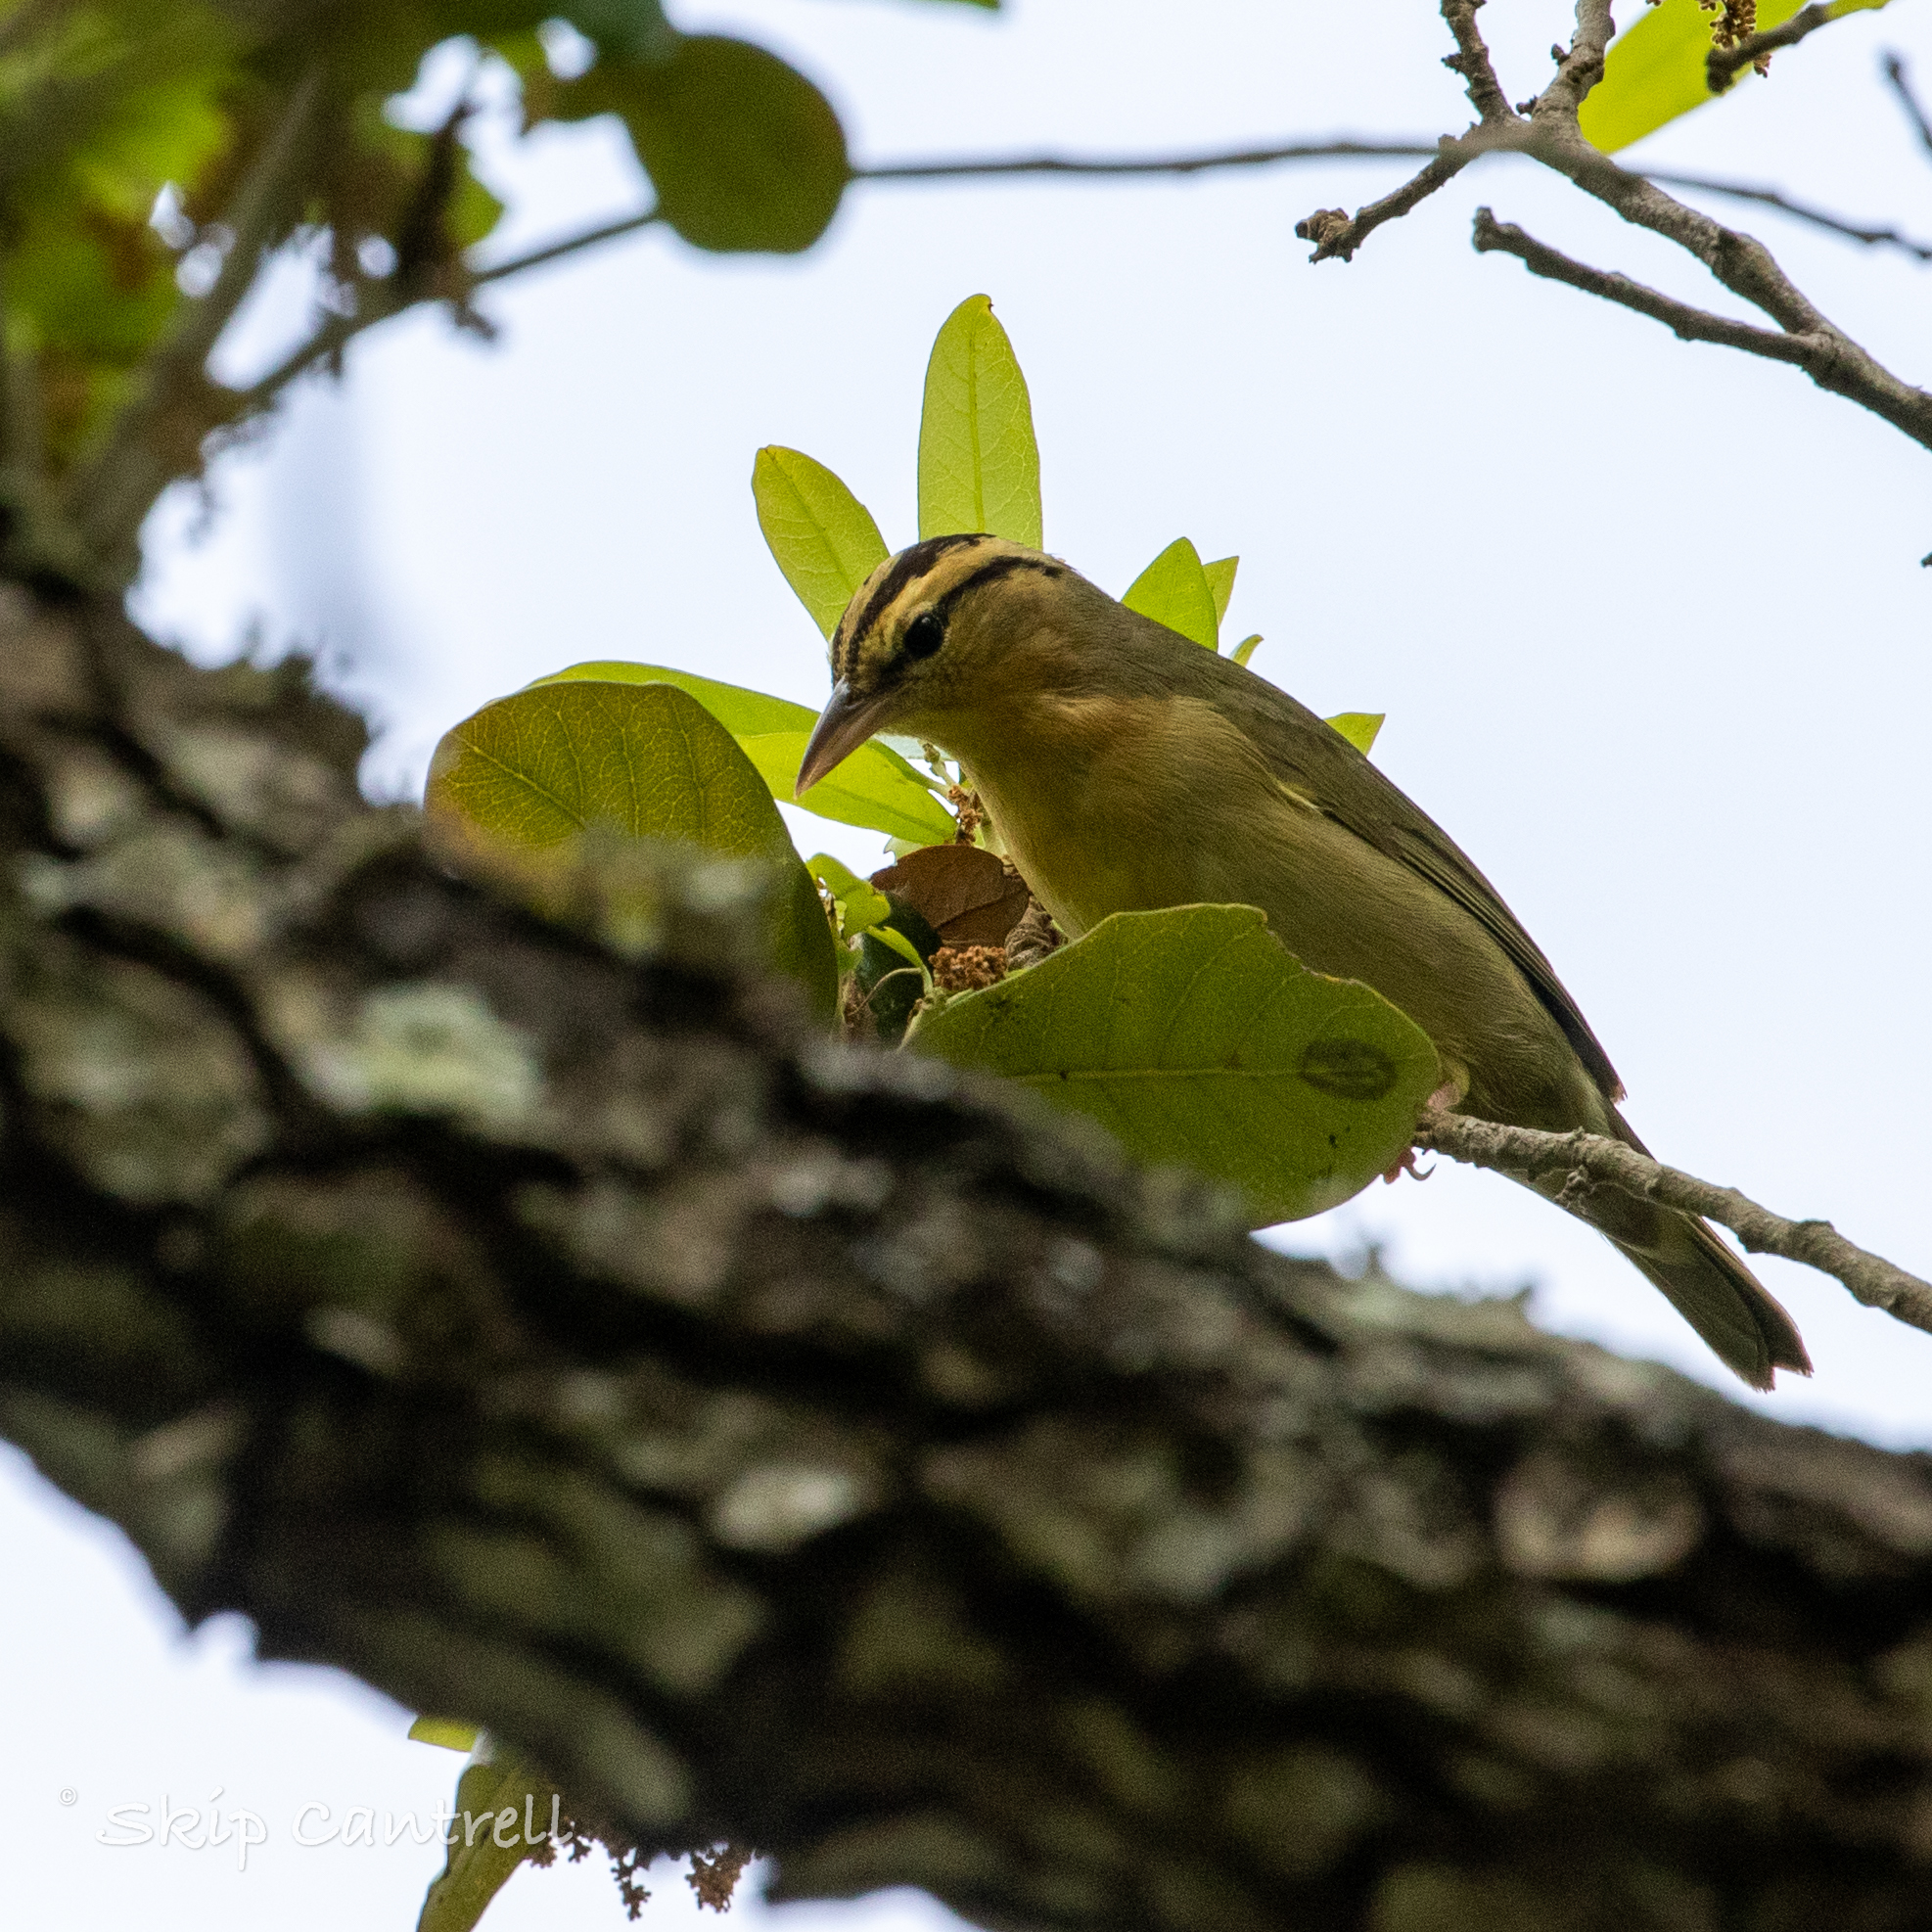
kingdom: Animalia
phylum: Chordata
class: Aves
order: Passeriformes
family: Parulidae
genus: Helmitheros
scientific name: Helmitheros vermivorum
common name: Worm-eating warbler
